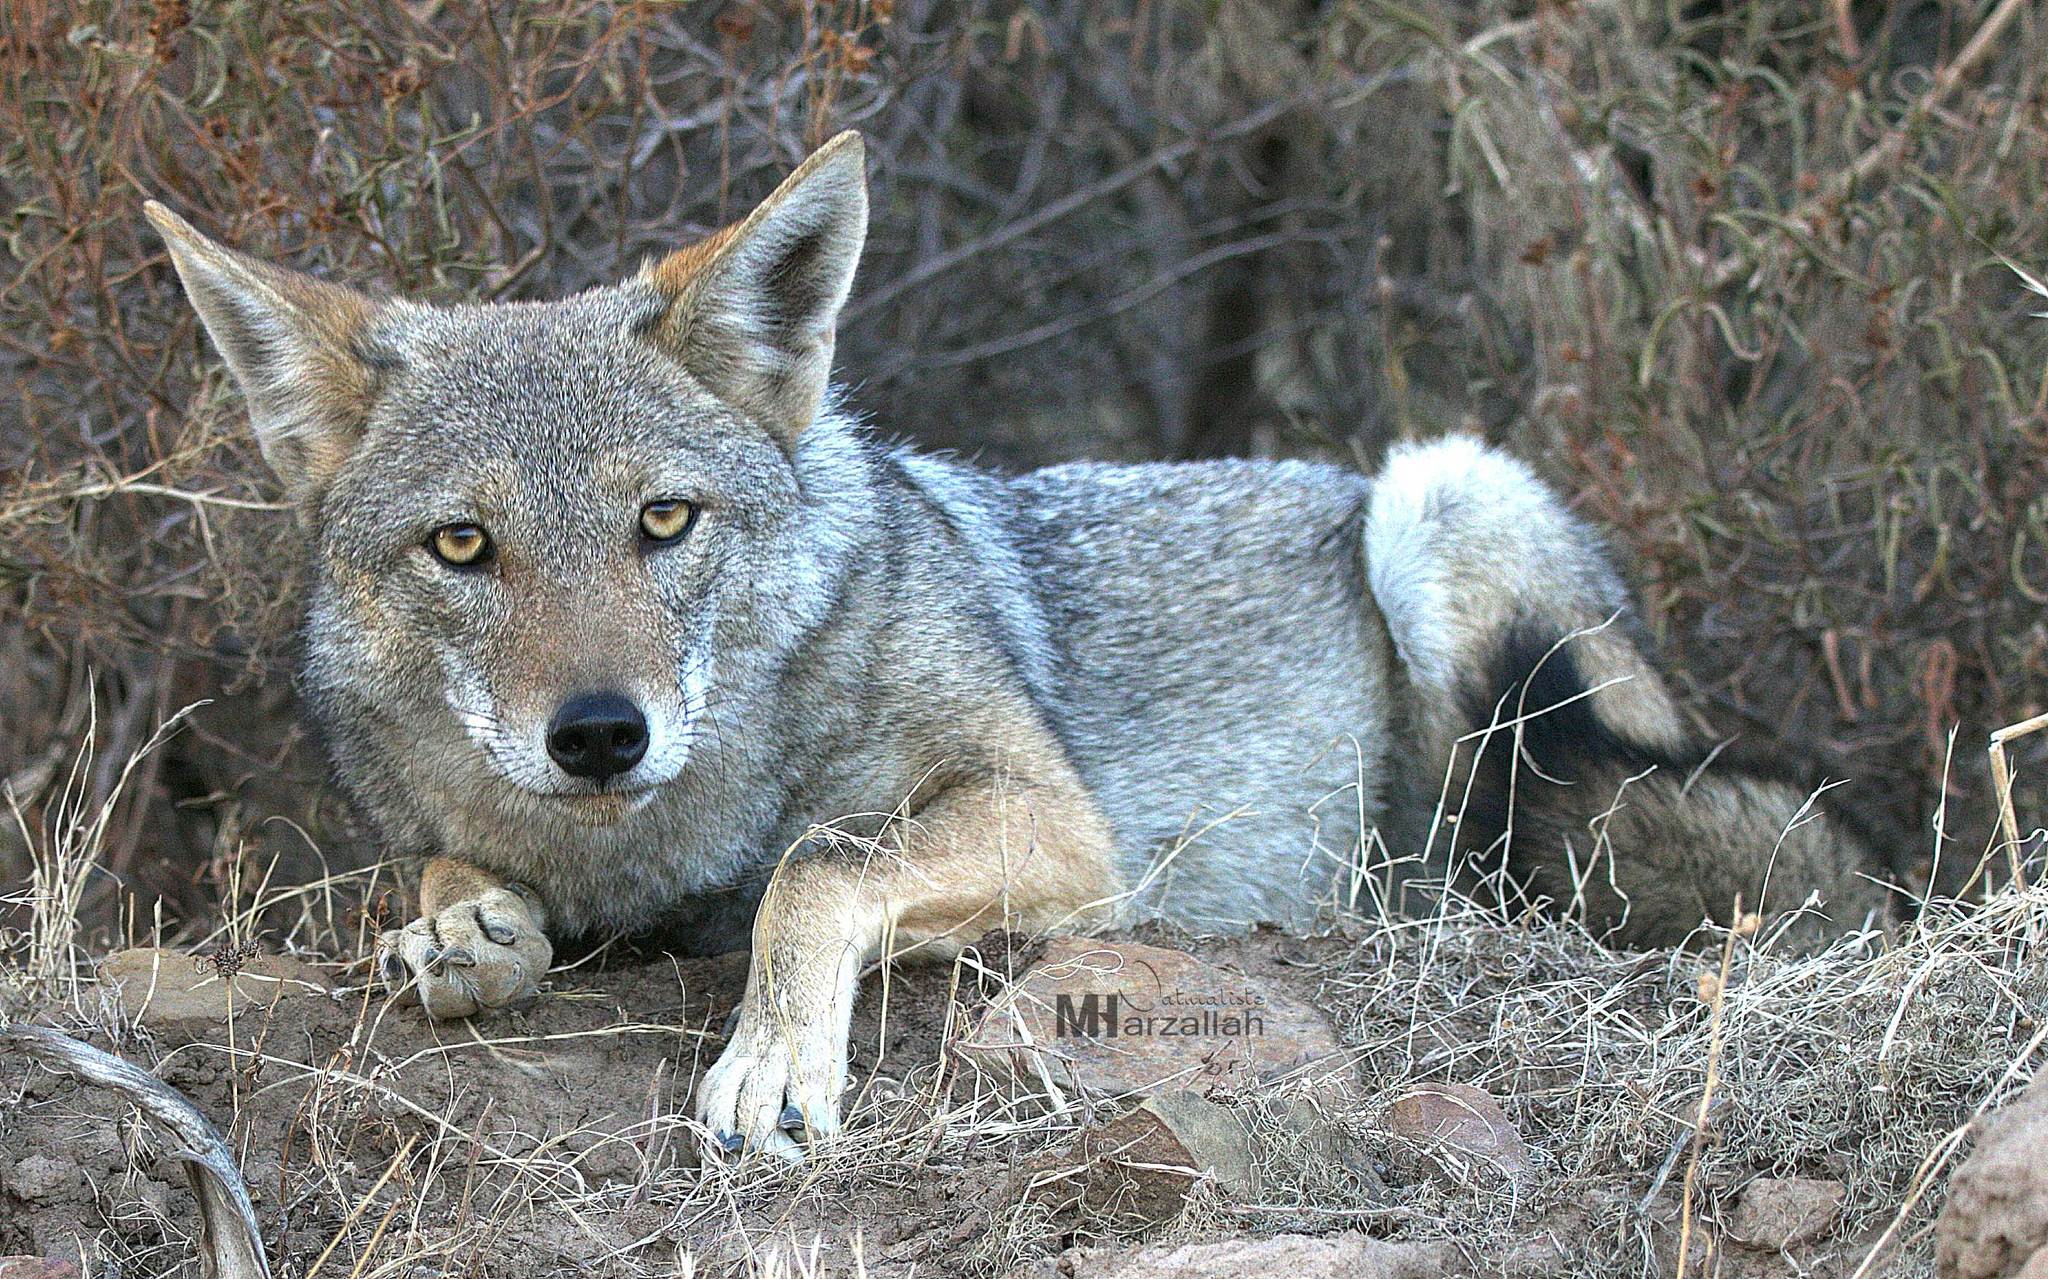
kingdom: Animalia
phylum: Chordata
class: Mammalia
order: Carnivora
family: Canidae
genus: Canis
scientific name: Canis lupaster
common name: African golden wolf
